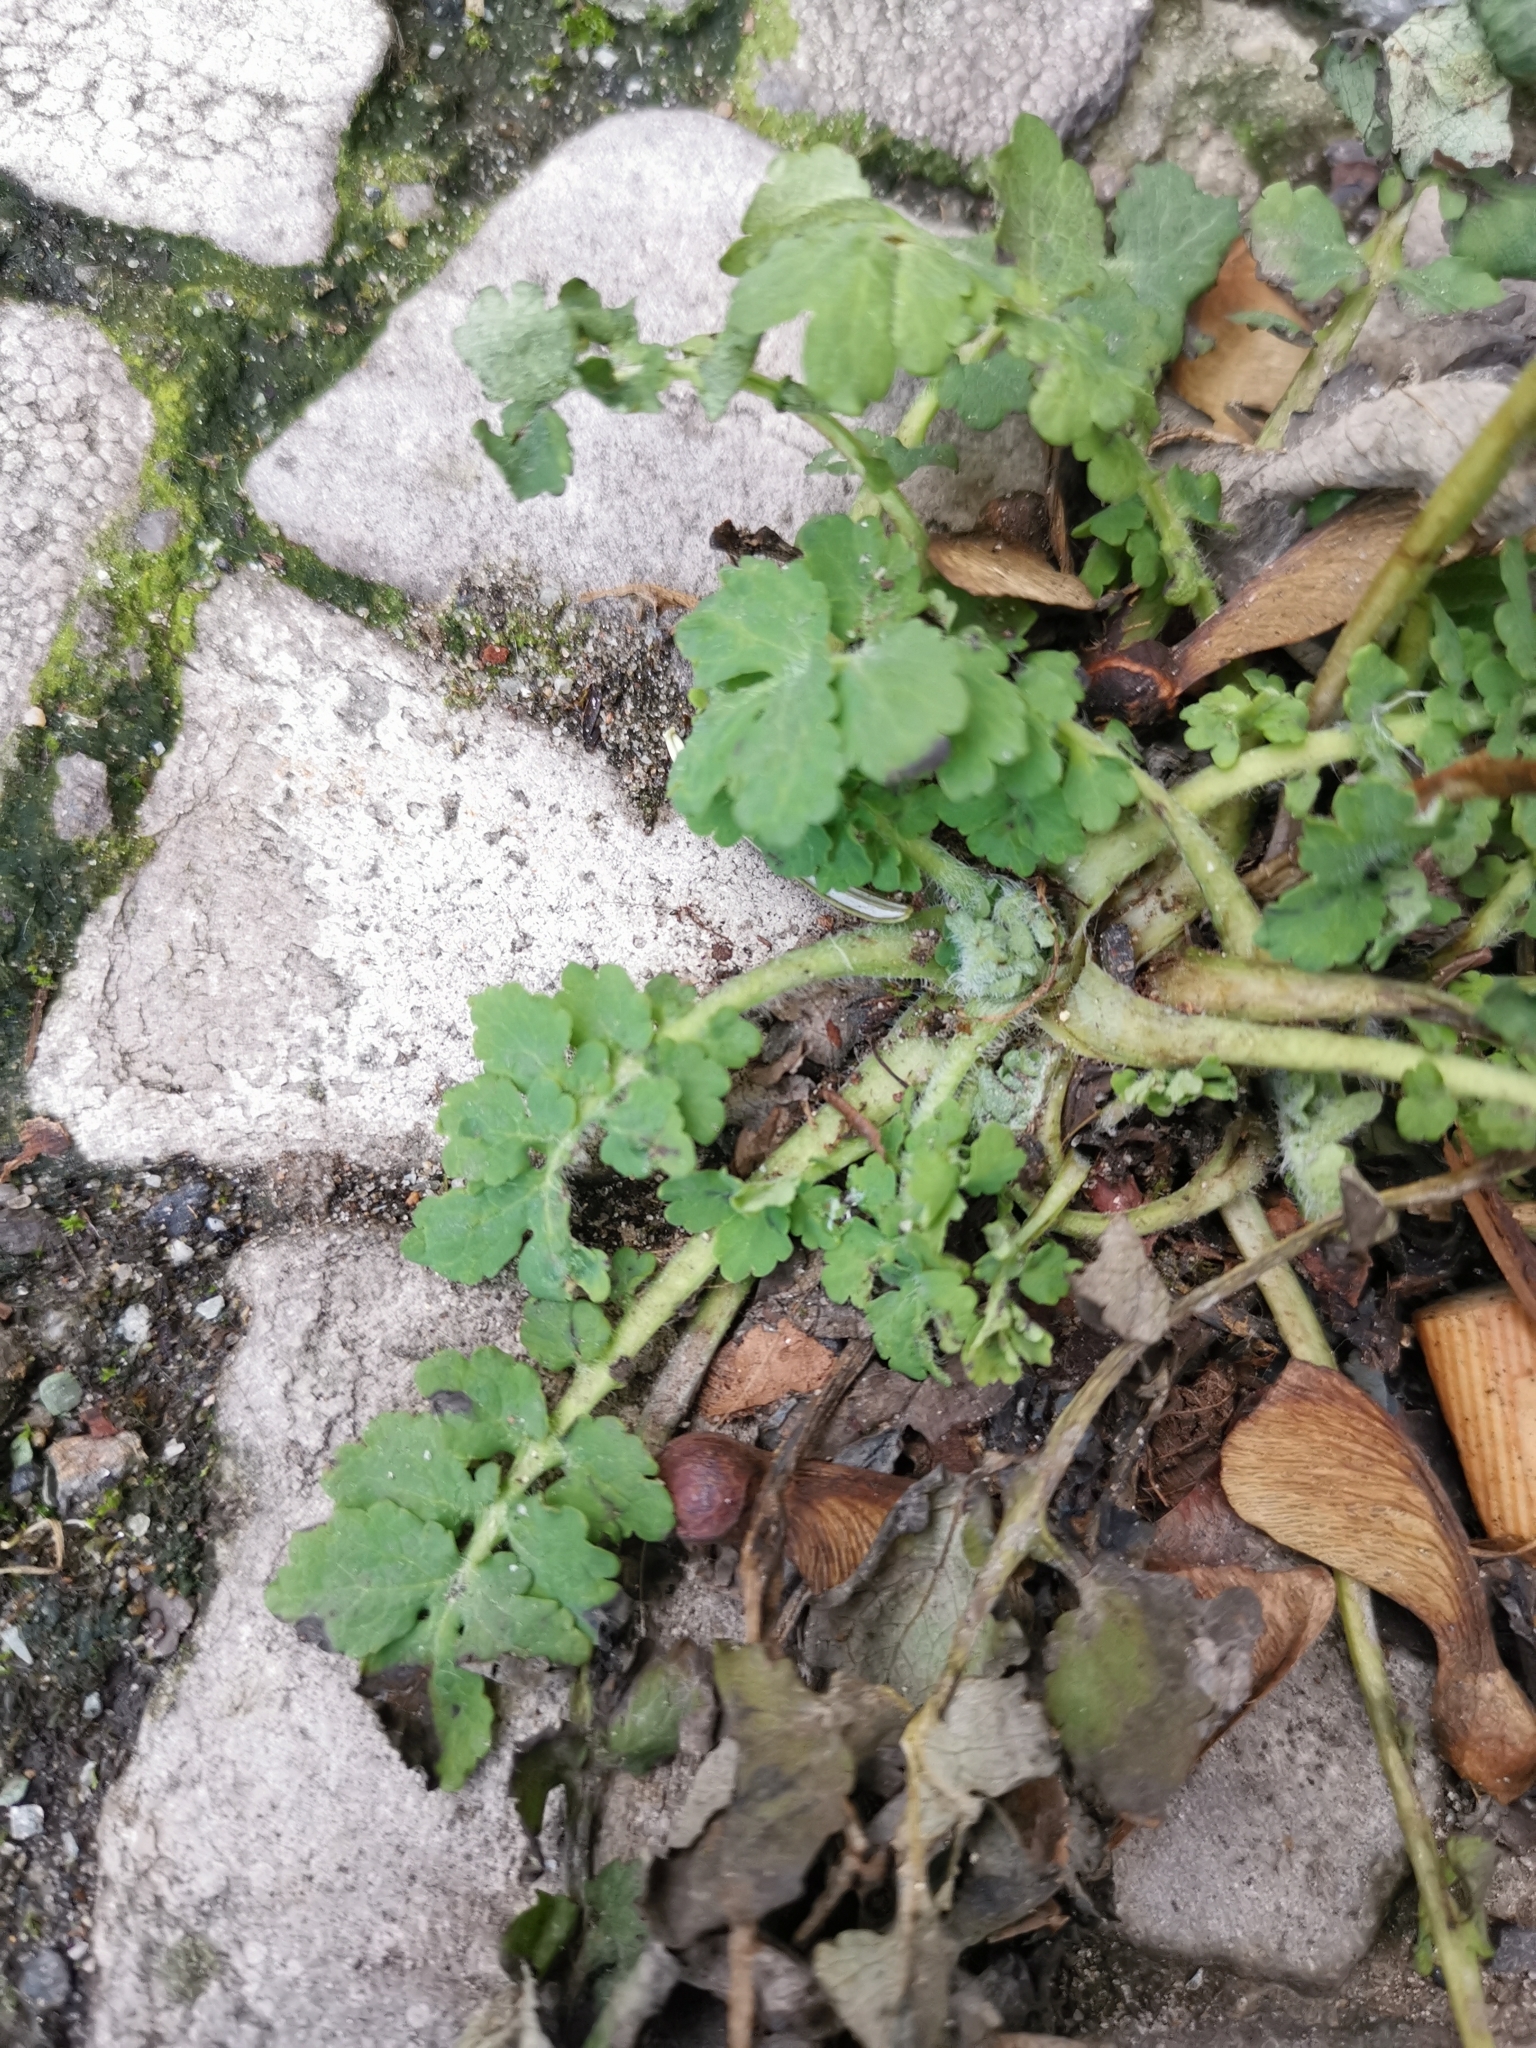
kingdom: Plantae
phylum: Tracheophyta
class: Magnoliopsida
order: Ranunculales
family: Papaveraceae
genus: Chelidonium
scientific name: Chelidonium majus
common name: Greater celandine
